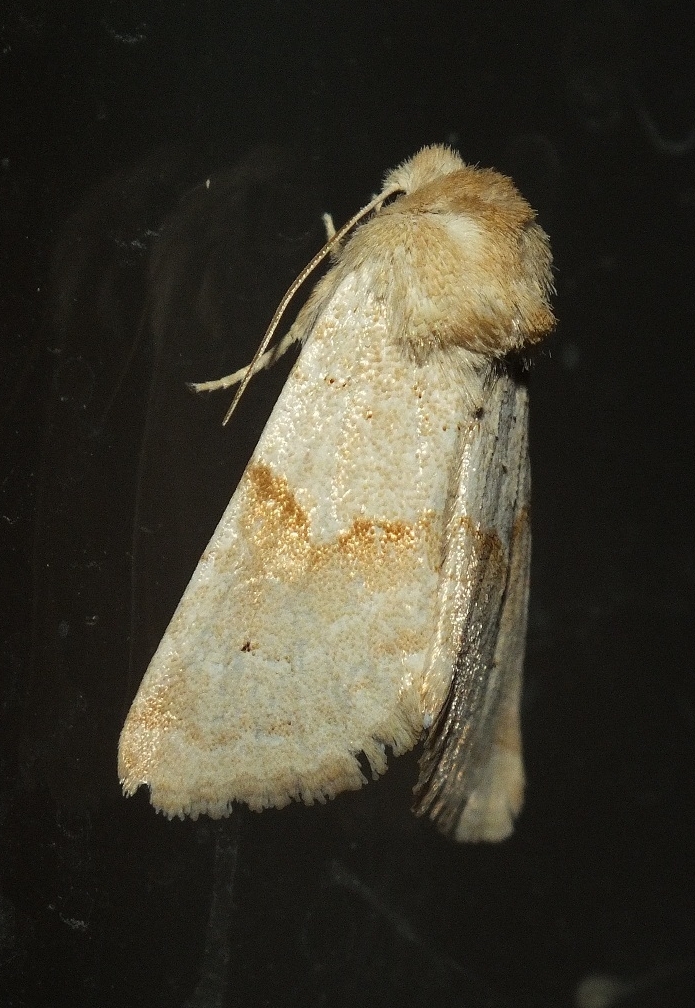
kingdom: Animalia
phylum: Arthropoda
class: Insecta
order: Lepidoptera
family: Noctuidae
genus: Mycteroplus
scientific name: Mycteroplus puniceago
